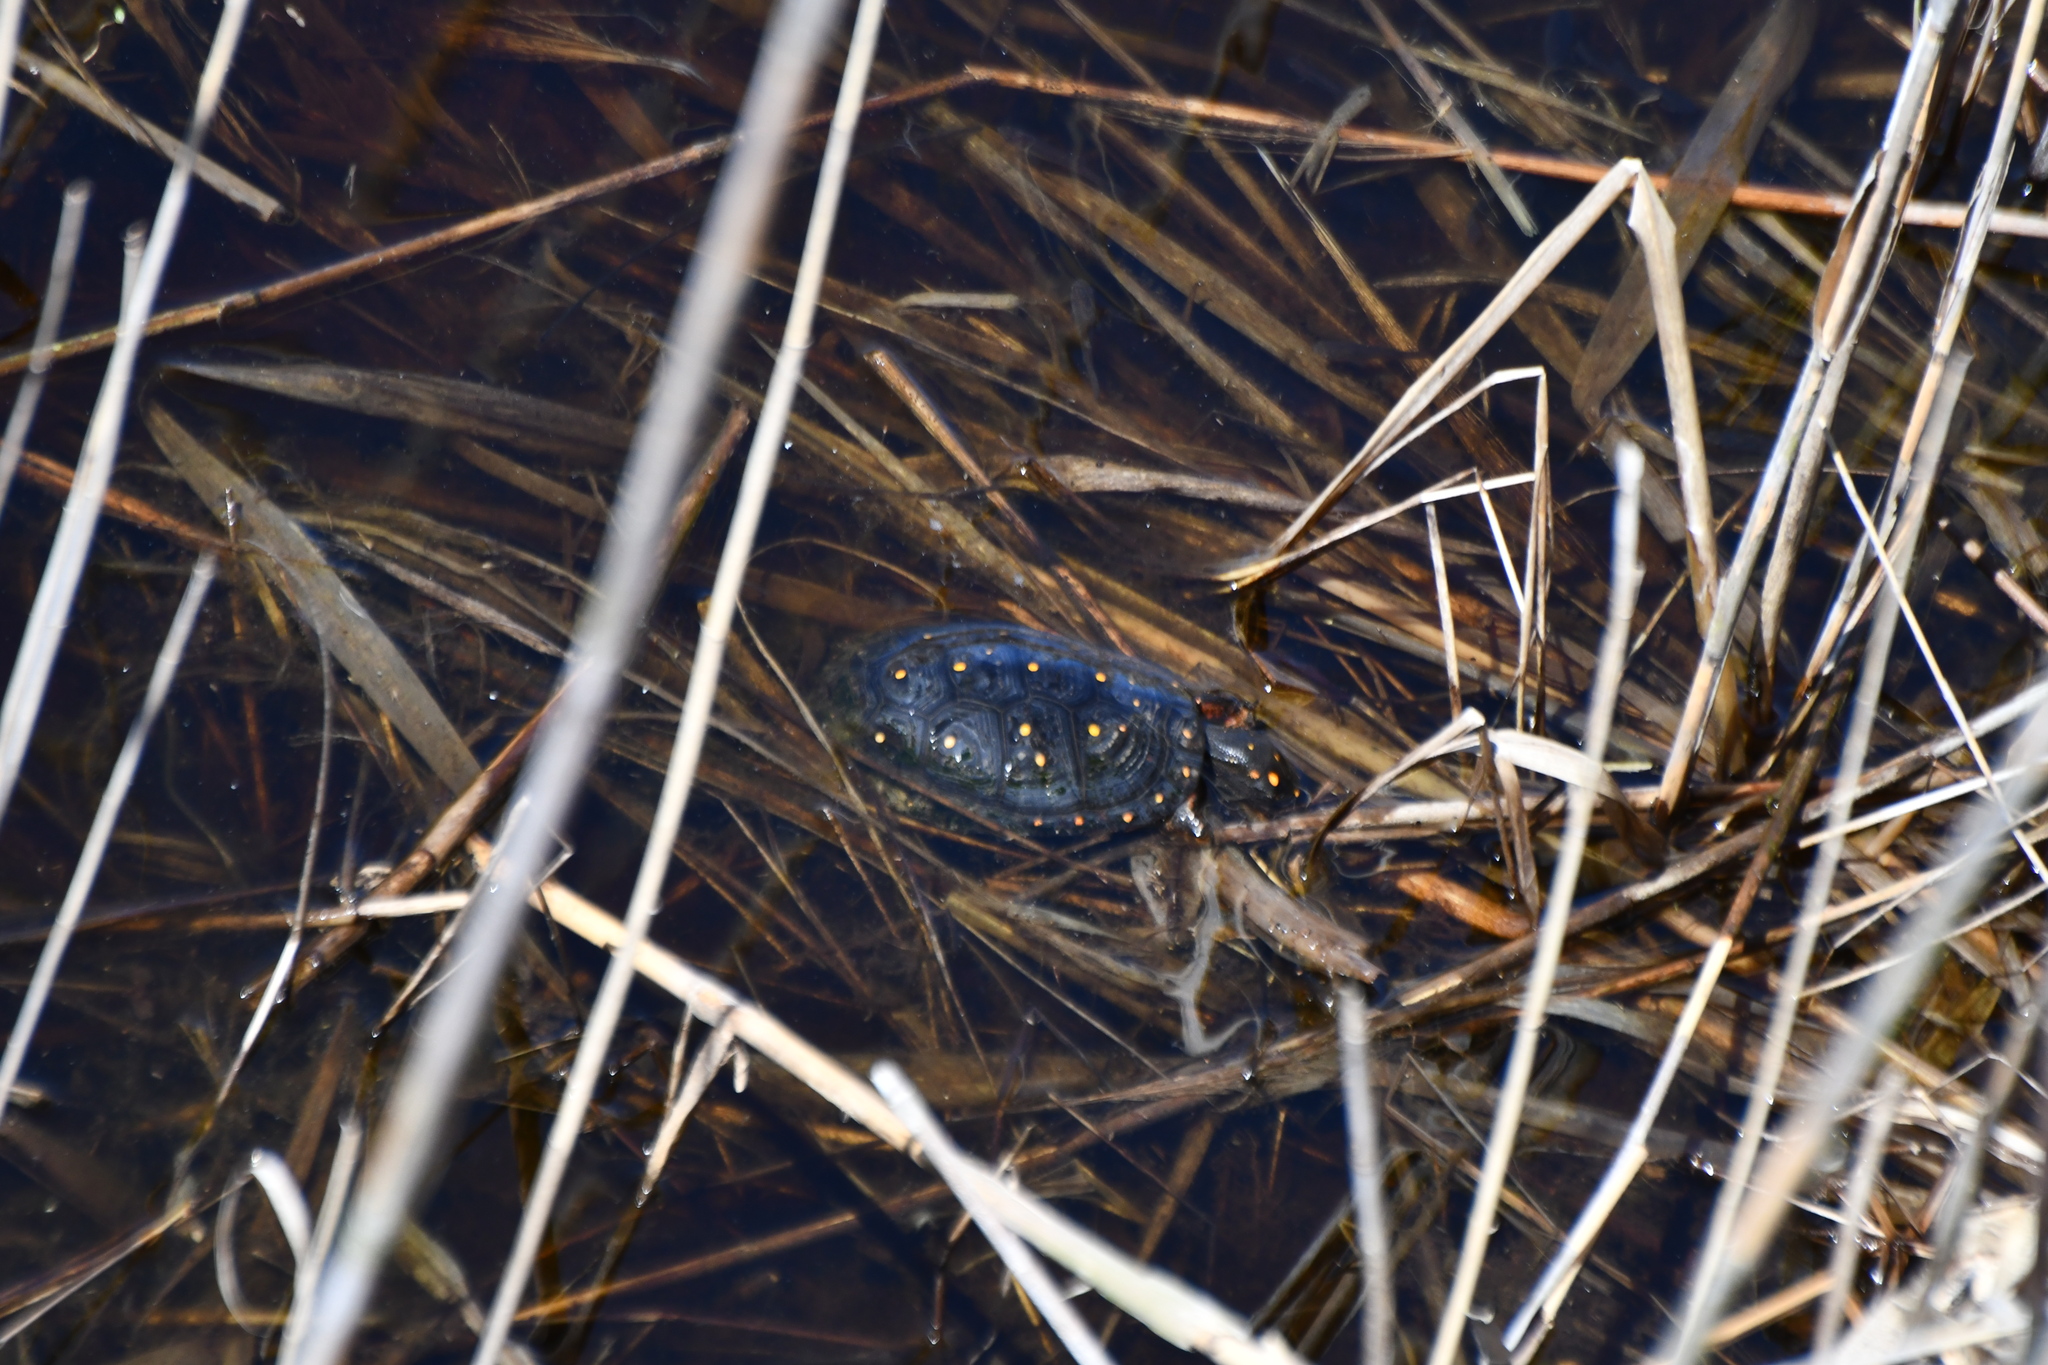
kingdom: Animalia
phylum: Chordata
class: Testudines
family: Emydidae
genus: Clemmys
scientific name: Clemmys guttata
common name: Spotted turtle
